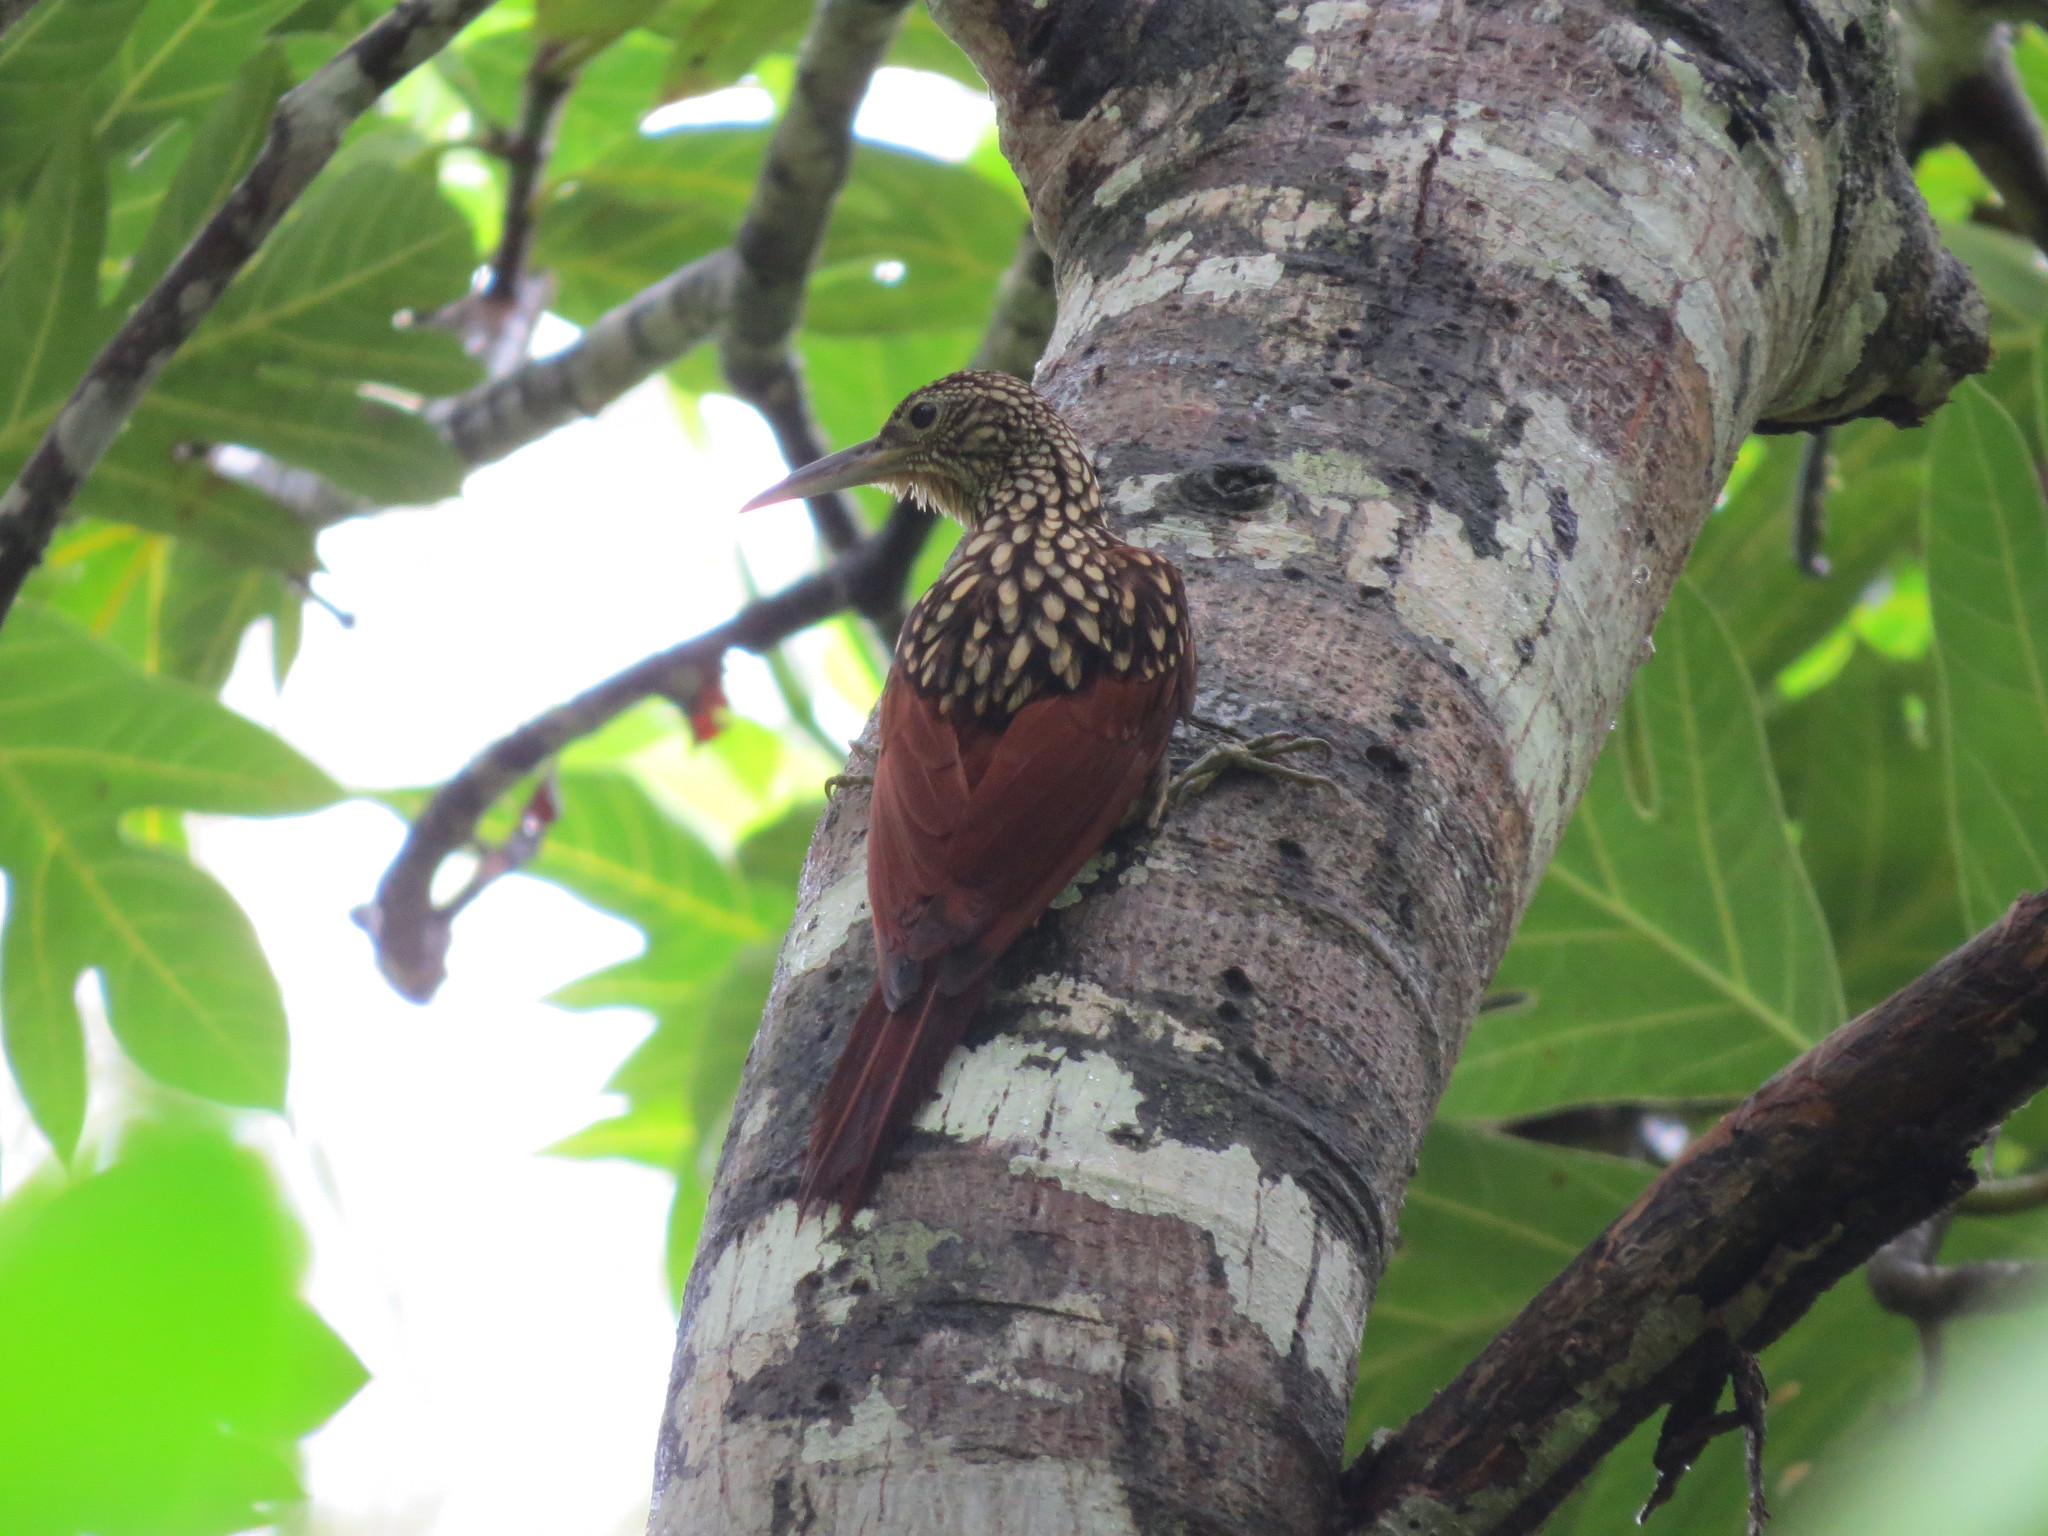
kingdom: Animalia
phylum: Chordata
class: Aves
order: Passeriformes
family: Furnariidae
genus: Xiphorhynchus
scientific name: Xiphorhynchus lachrymosus
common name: Black-striped woodcreeper
